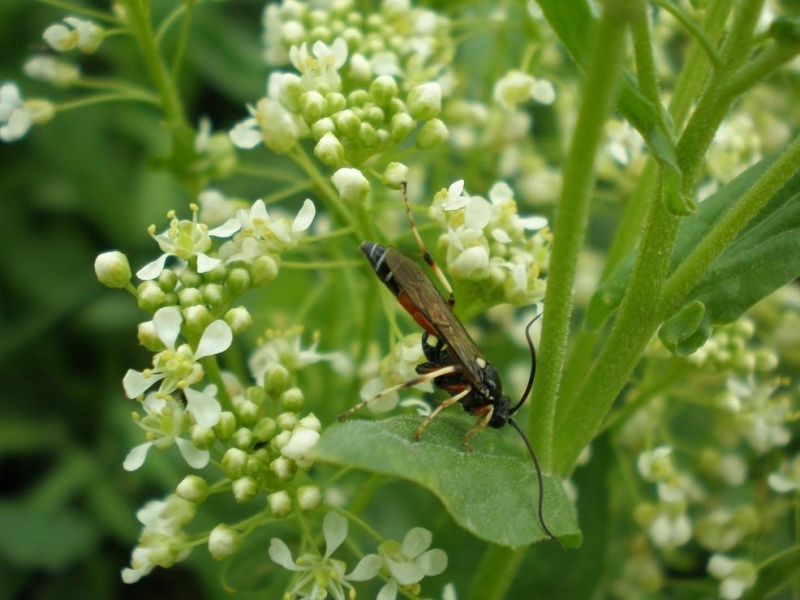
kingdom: Animalia
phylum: Arthropoda
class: Insecta
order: Hymenoptera
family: Ichneumonidae
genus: Ctenichneumon
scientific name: Ctenichneumon panzeri
